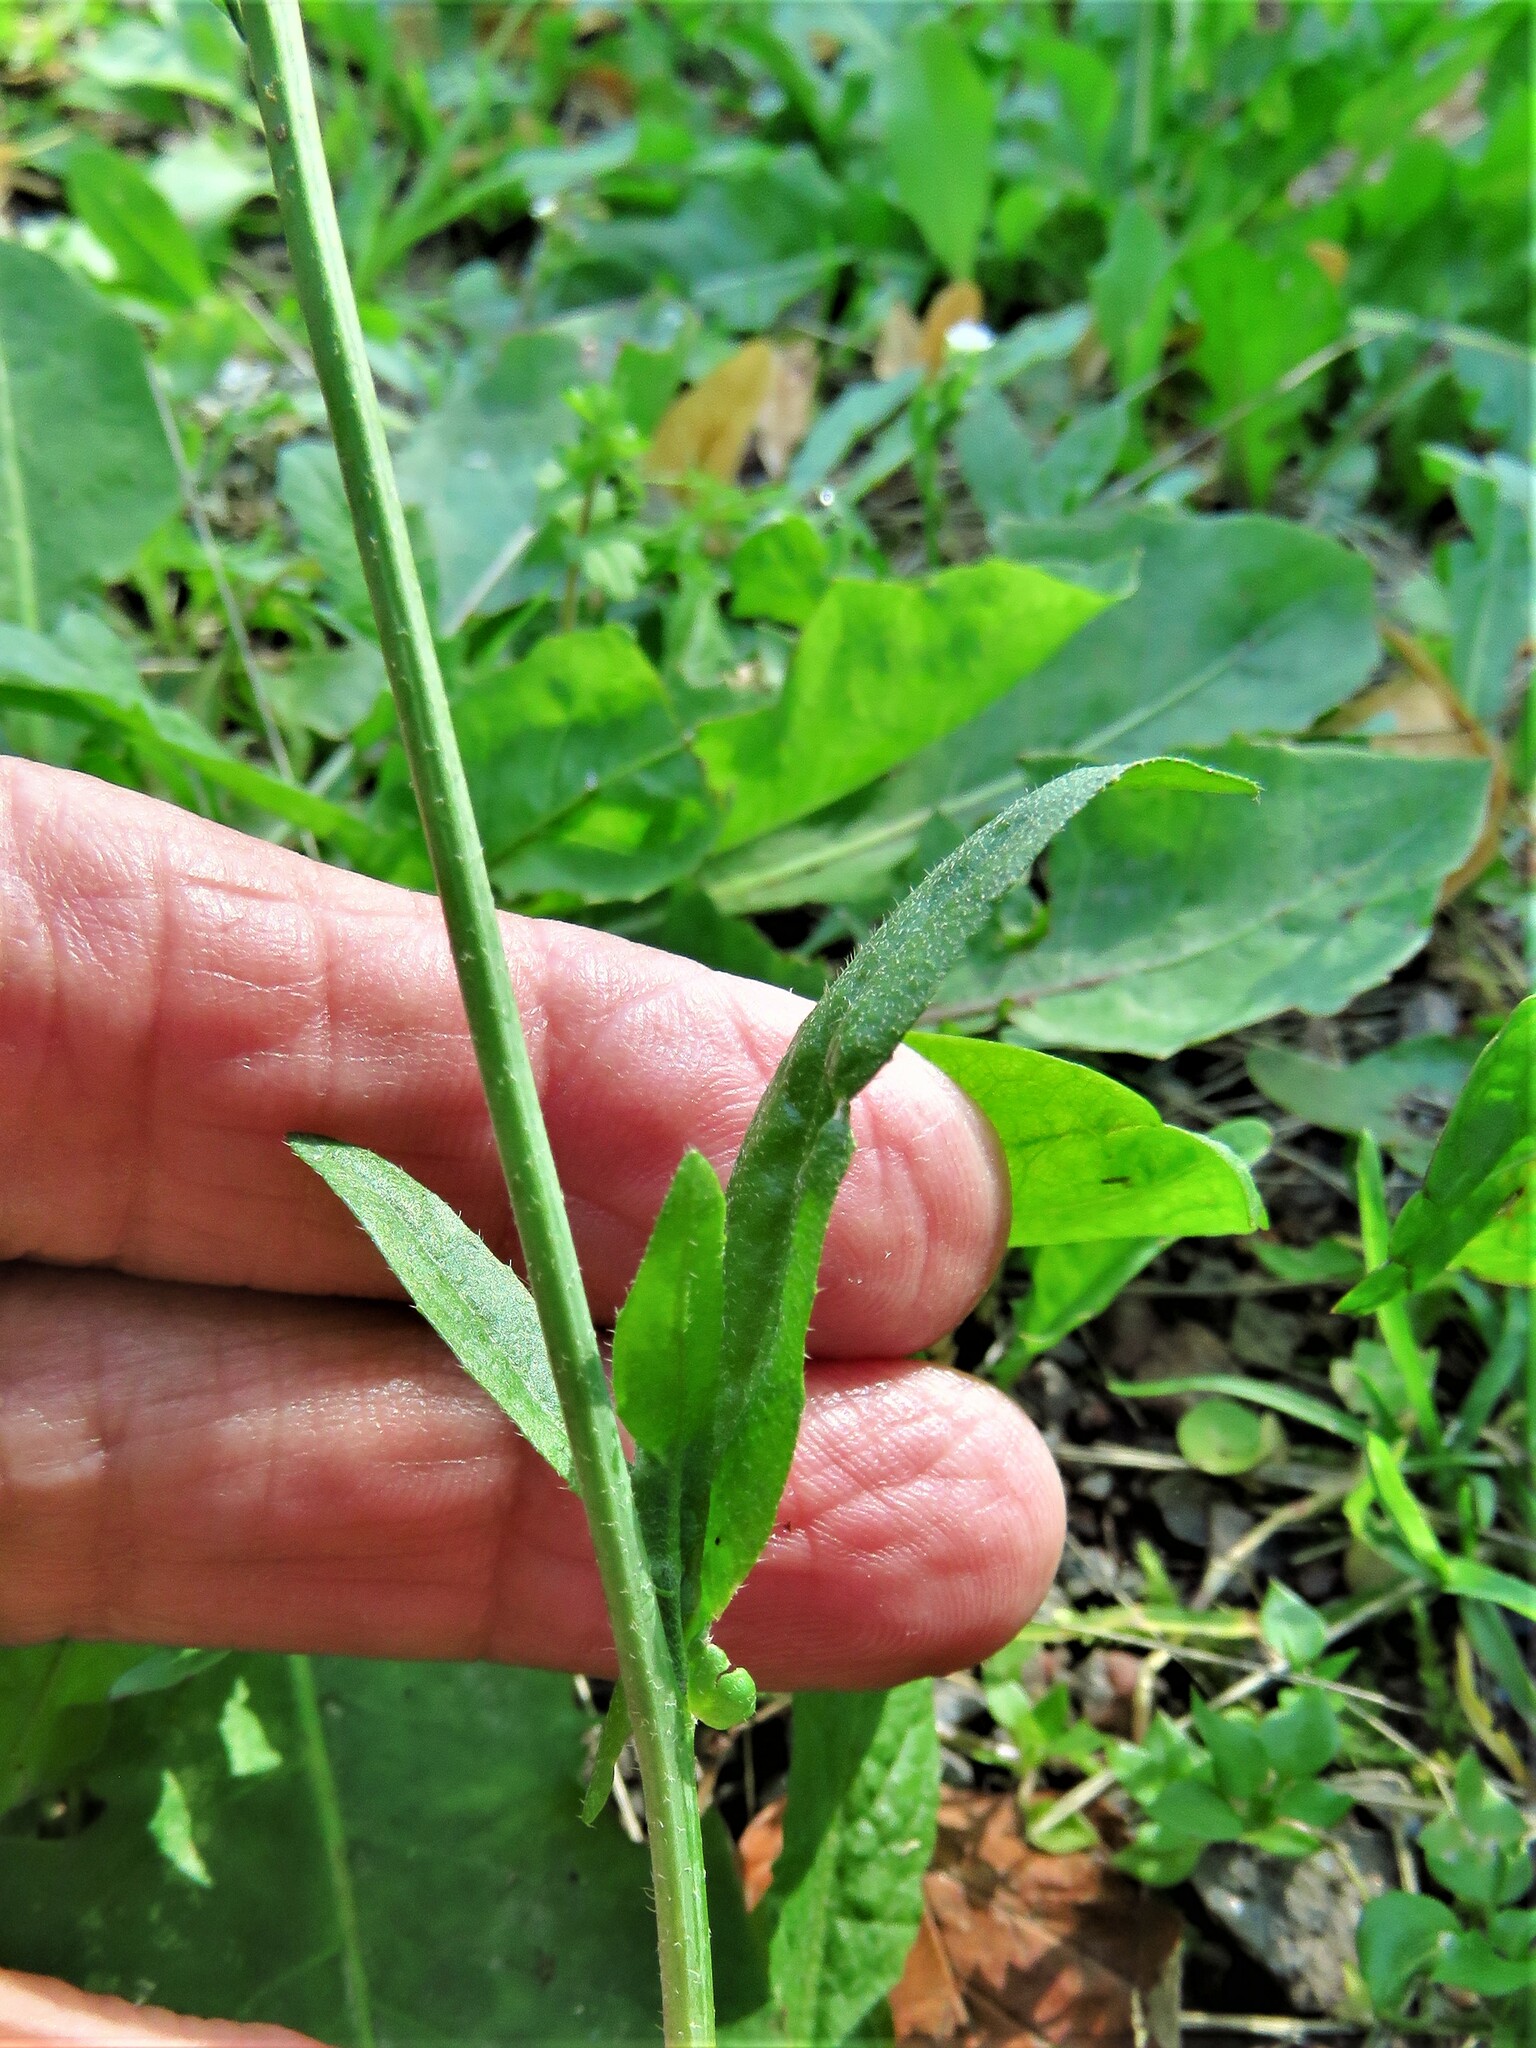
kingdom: Plantae
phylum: Tracheophyta
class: Magnoliopsida
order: Brassicales
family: Brassicaceae
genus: Capsella
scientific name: Capsella bursa-pastoris
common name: Shepherd's purse
